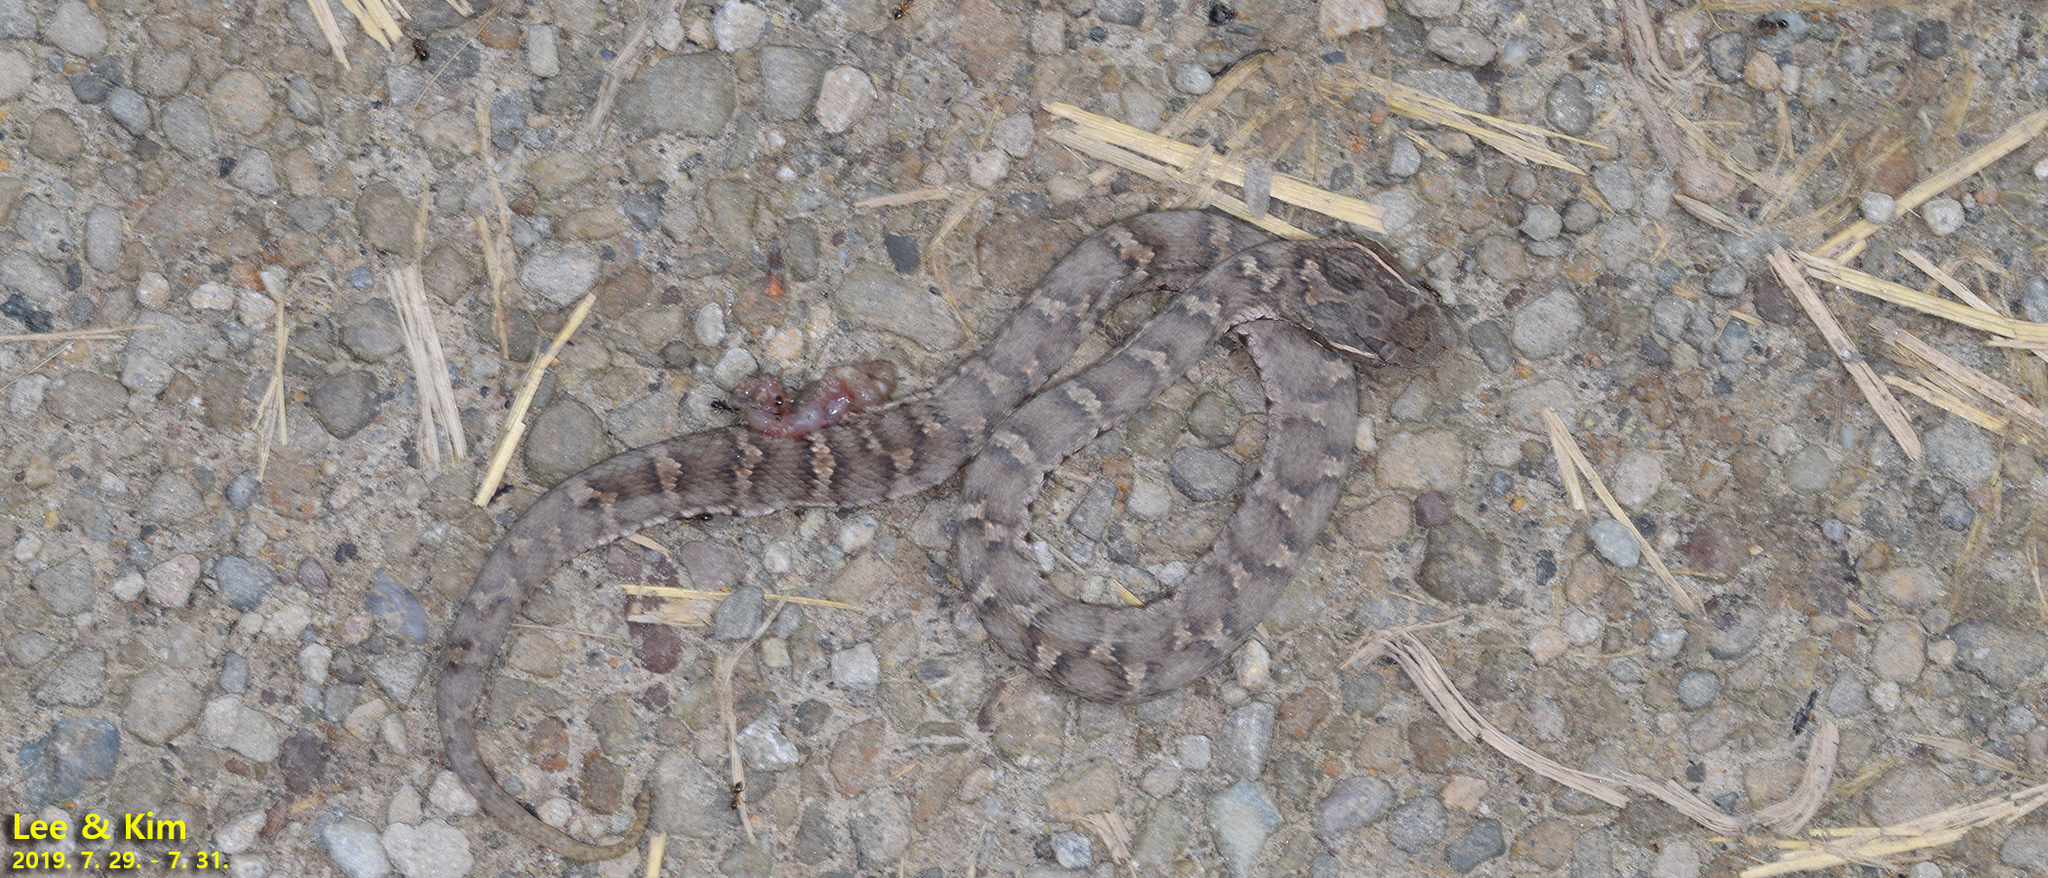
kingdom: Animalia
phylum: Chordata
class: Squamata
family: Viperidae
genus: Gloydius
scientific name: Gloydius ussuriensis
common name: Ussuri mamushi
